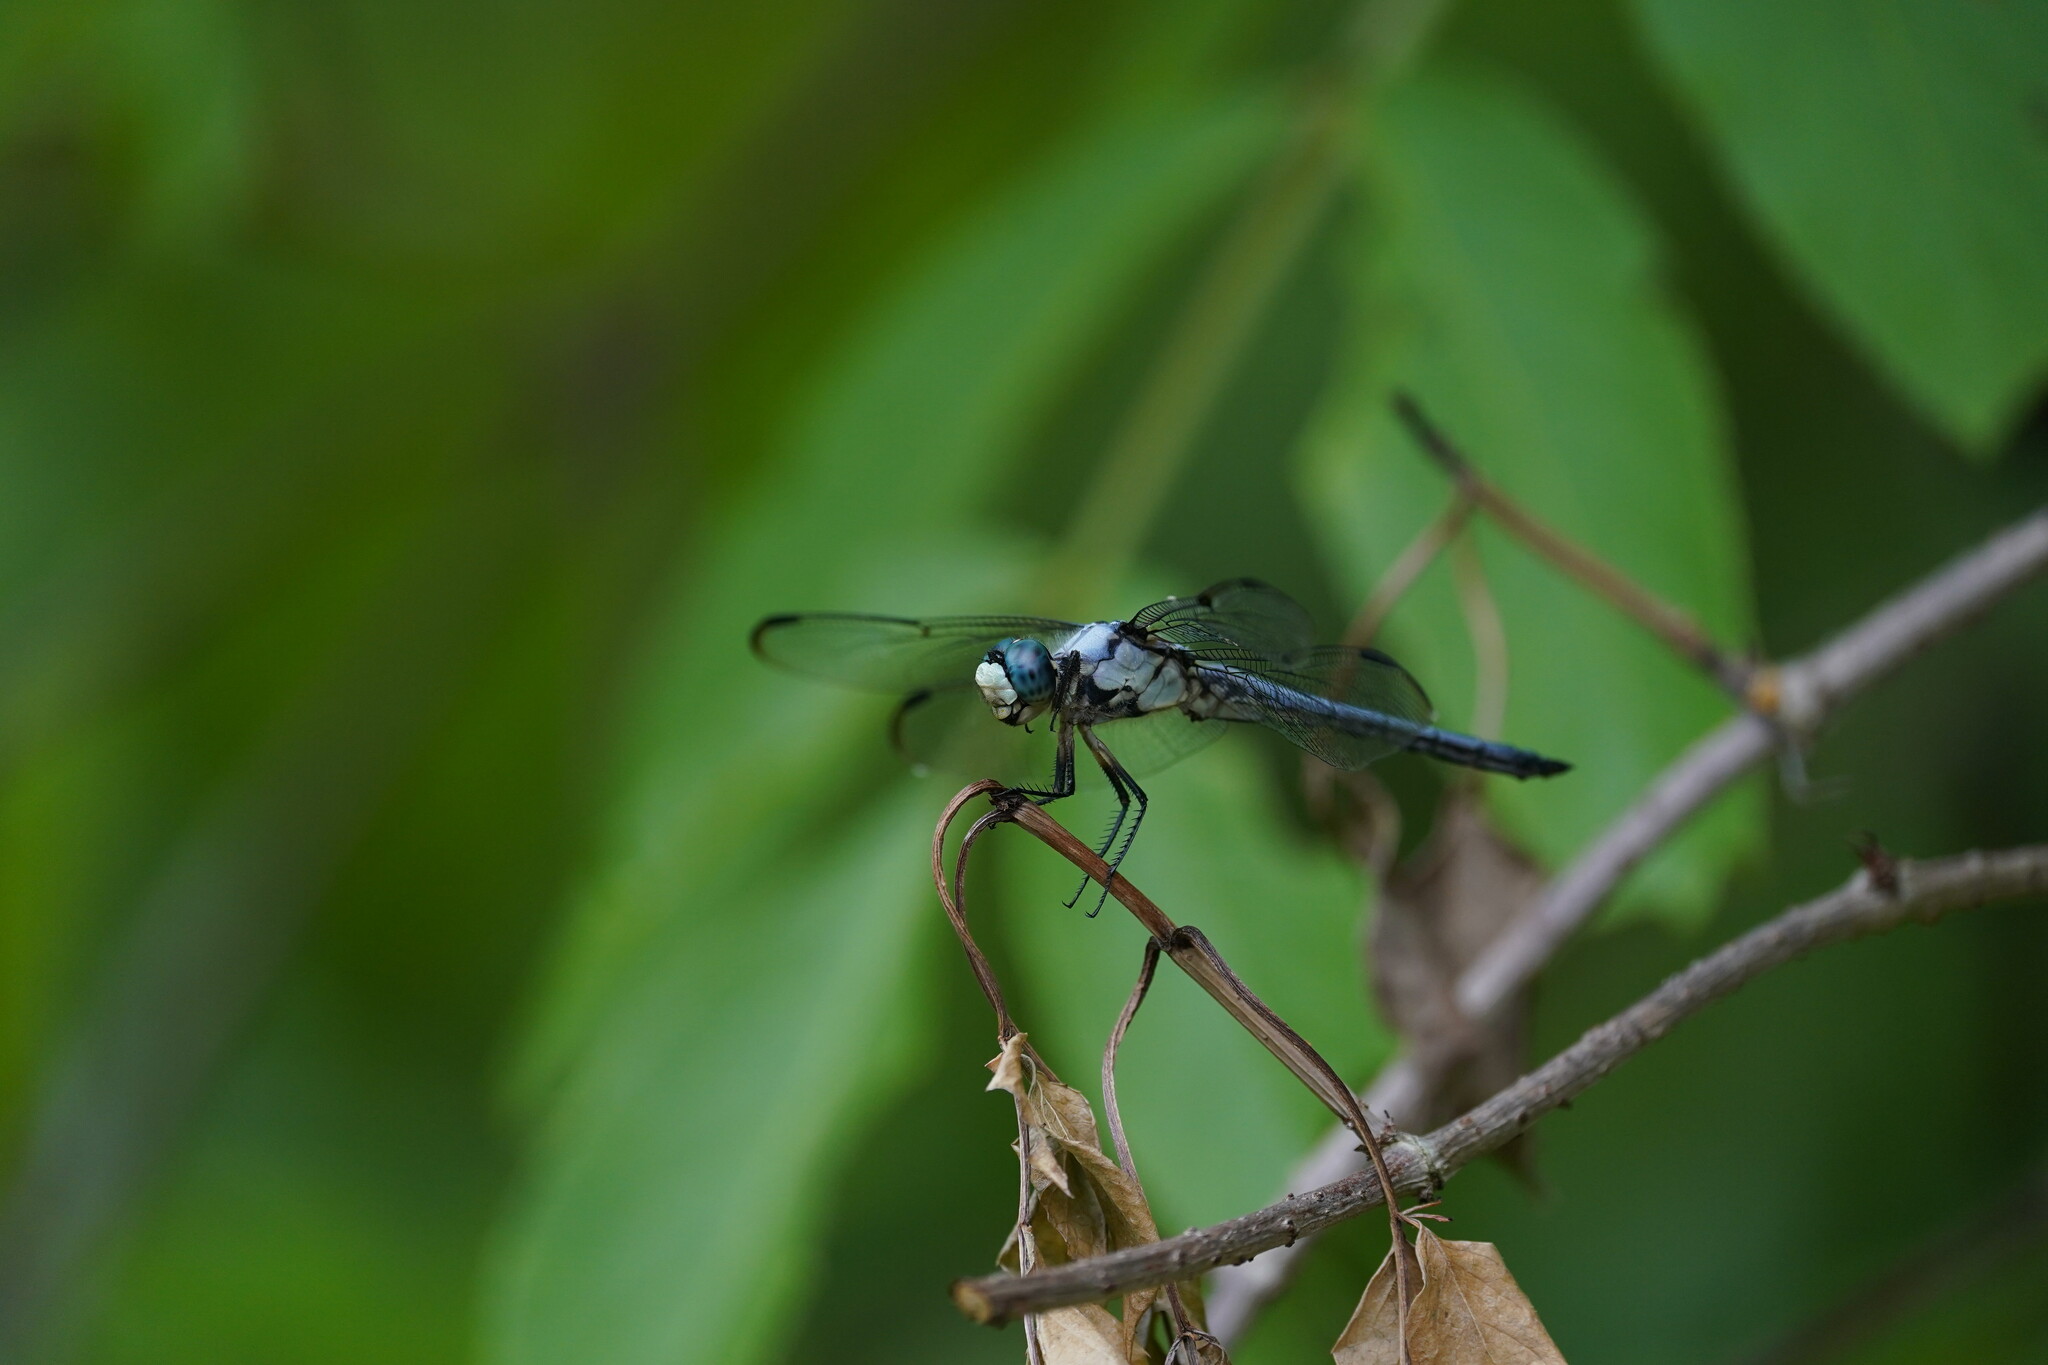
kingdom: Animalia
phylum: Arthropoda
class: Insecta
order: Odonata
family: Libellulidae
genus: Libellula
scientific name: Libellula vibrans
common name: Great blue skimmer
